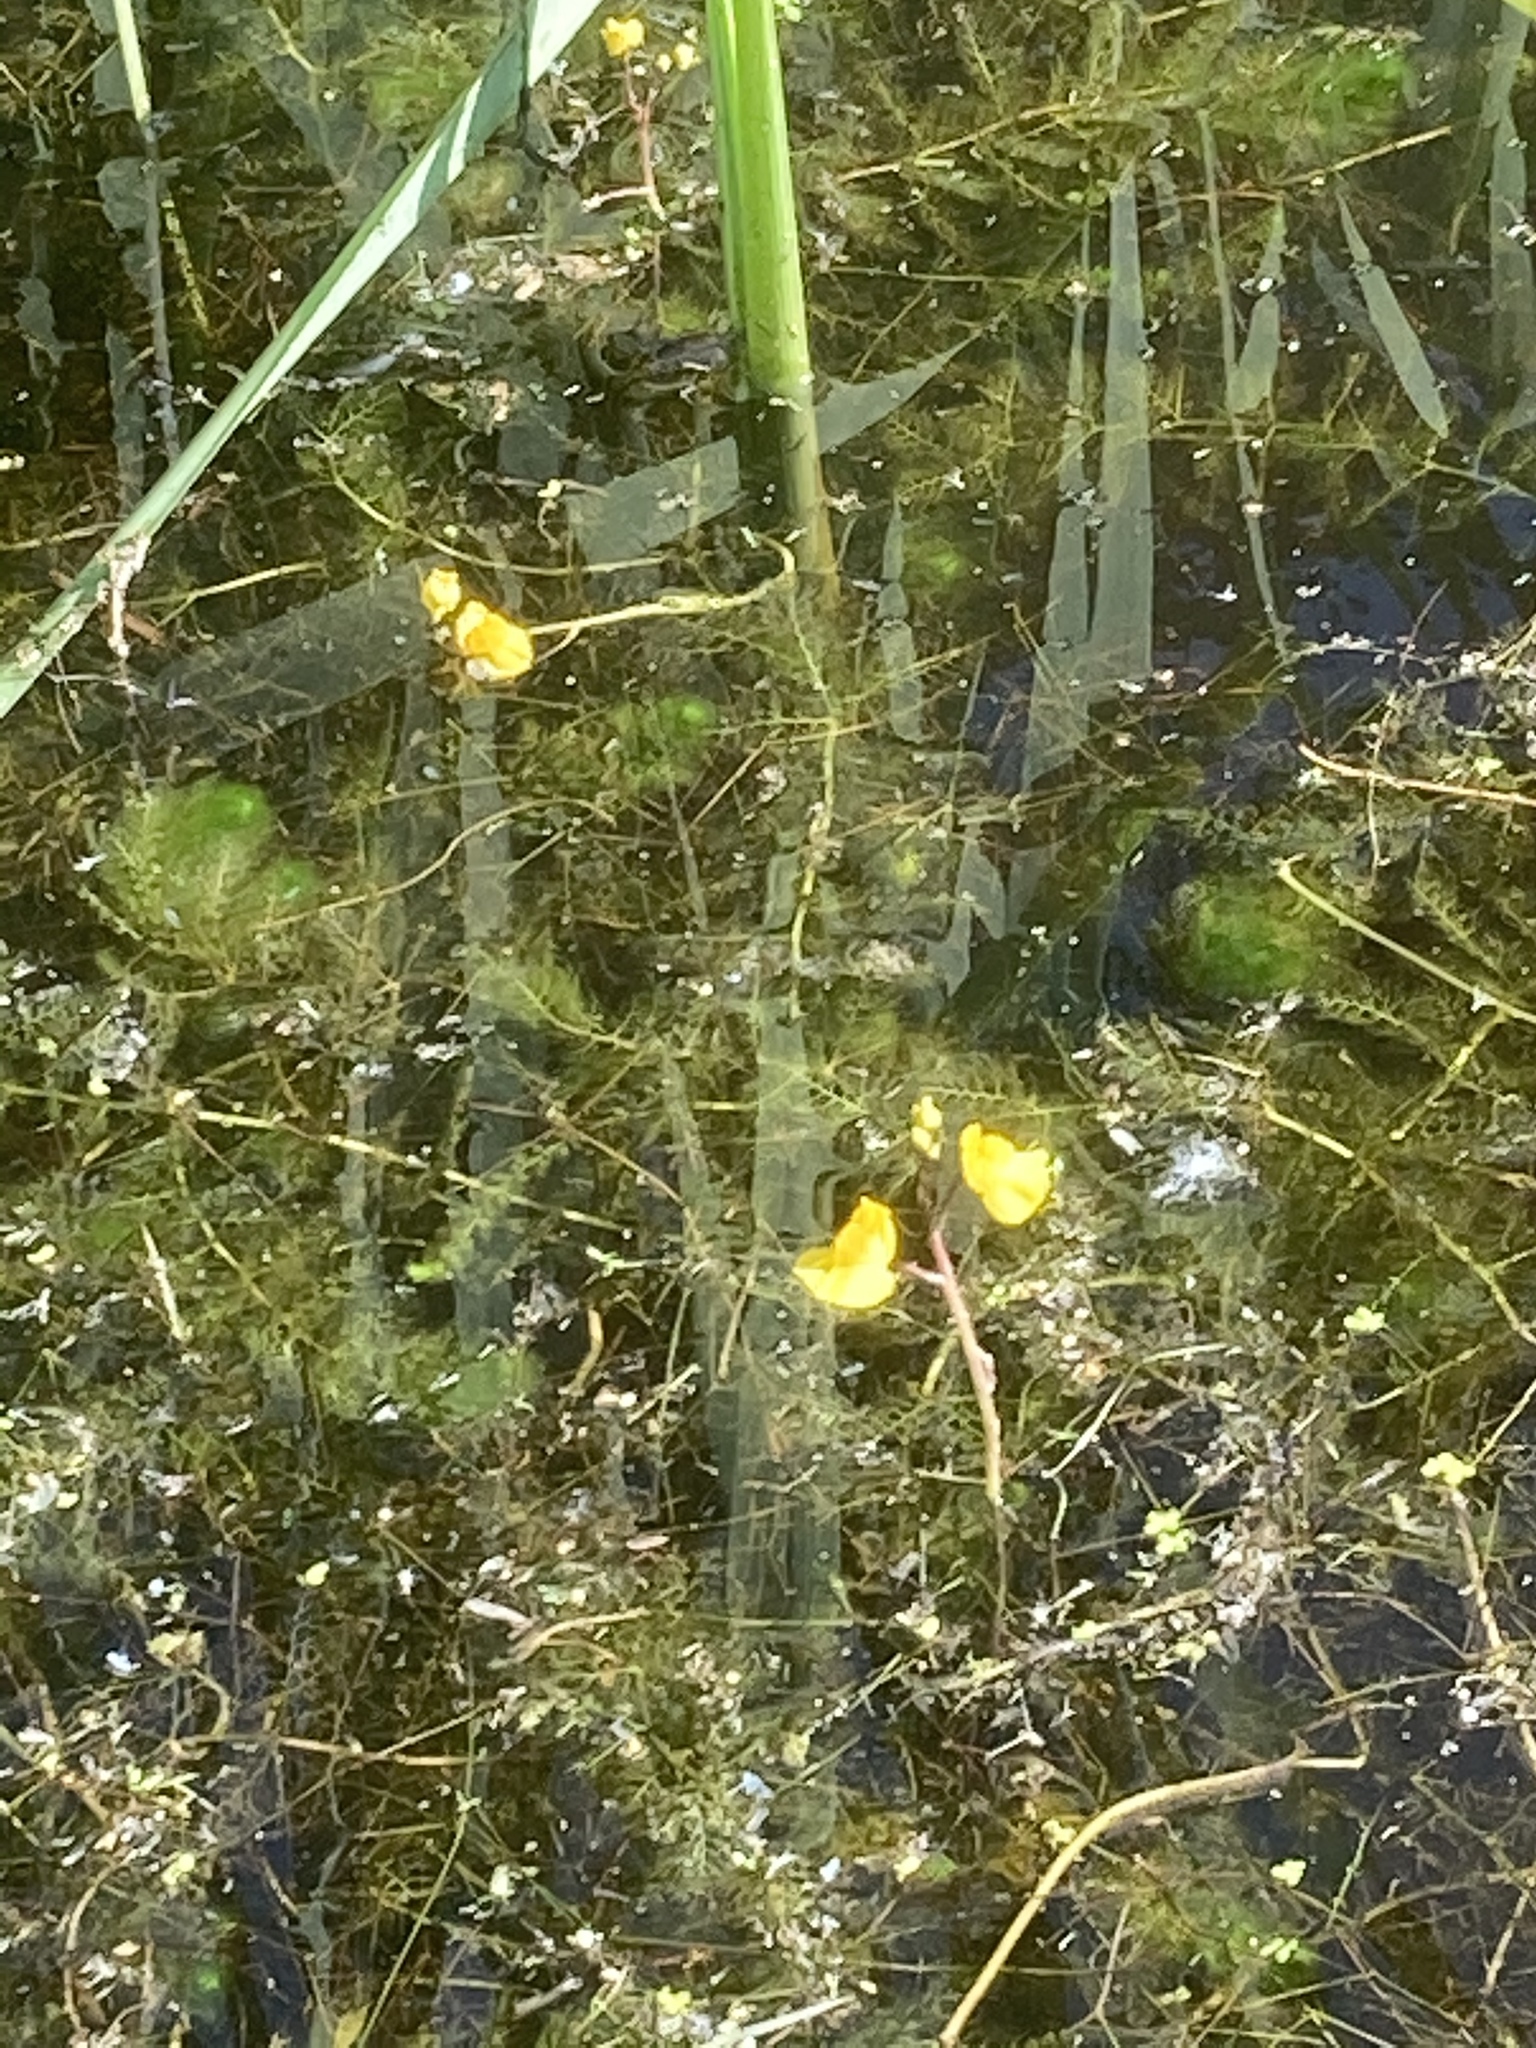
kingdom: Plantae
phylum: Tracheophyta
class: Magnoliopsida
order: Lamiales
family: Lentibulariaceae
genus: Utricularia
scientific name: Utricularia australis
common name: Bladderwort
